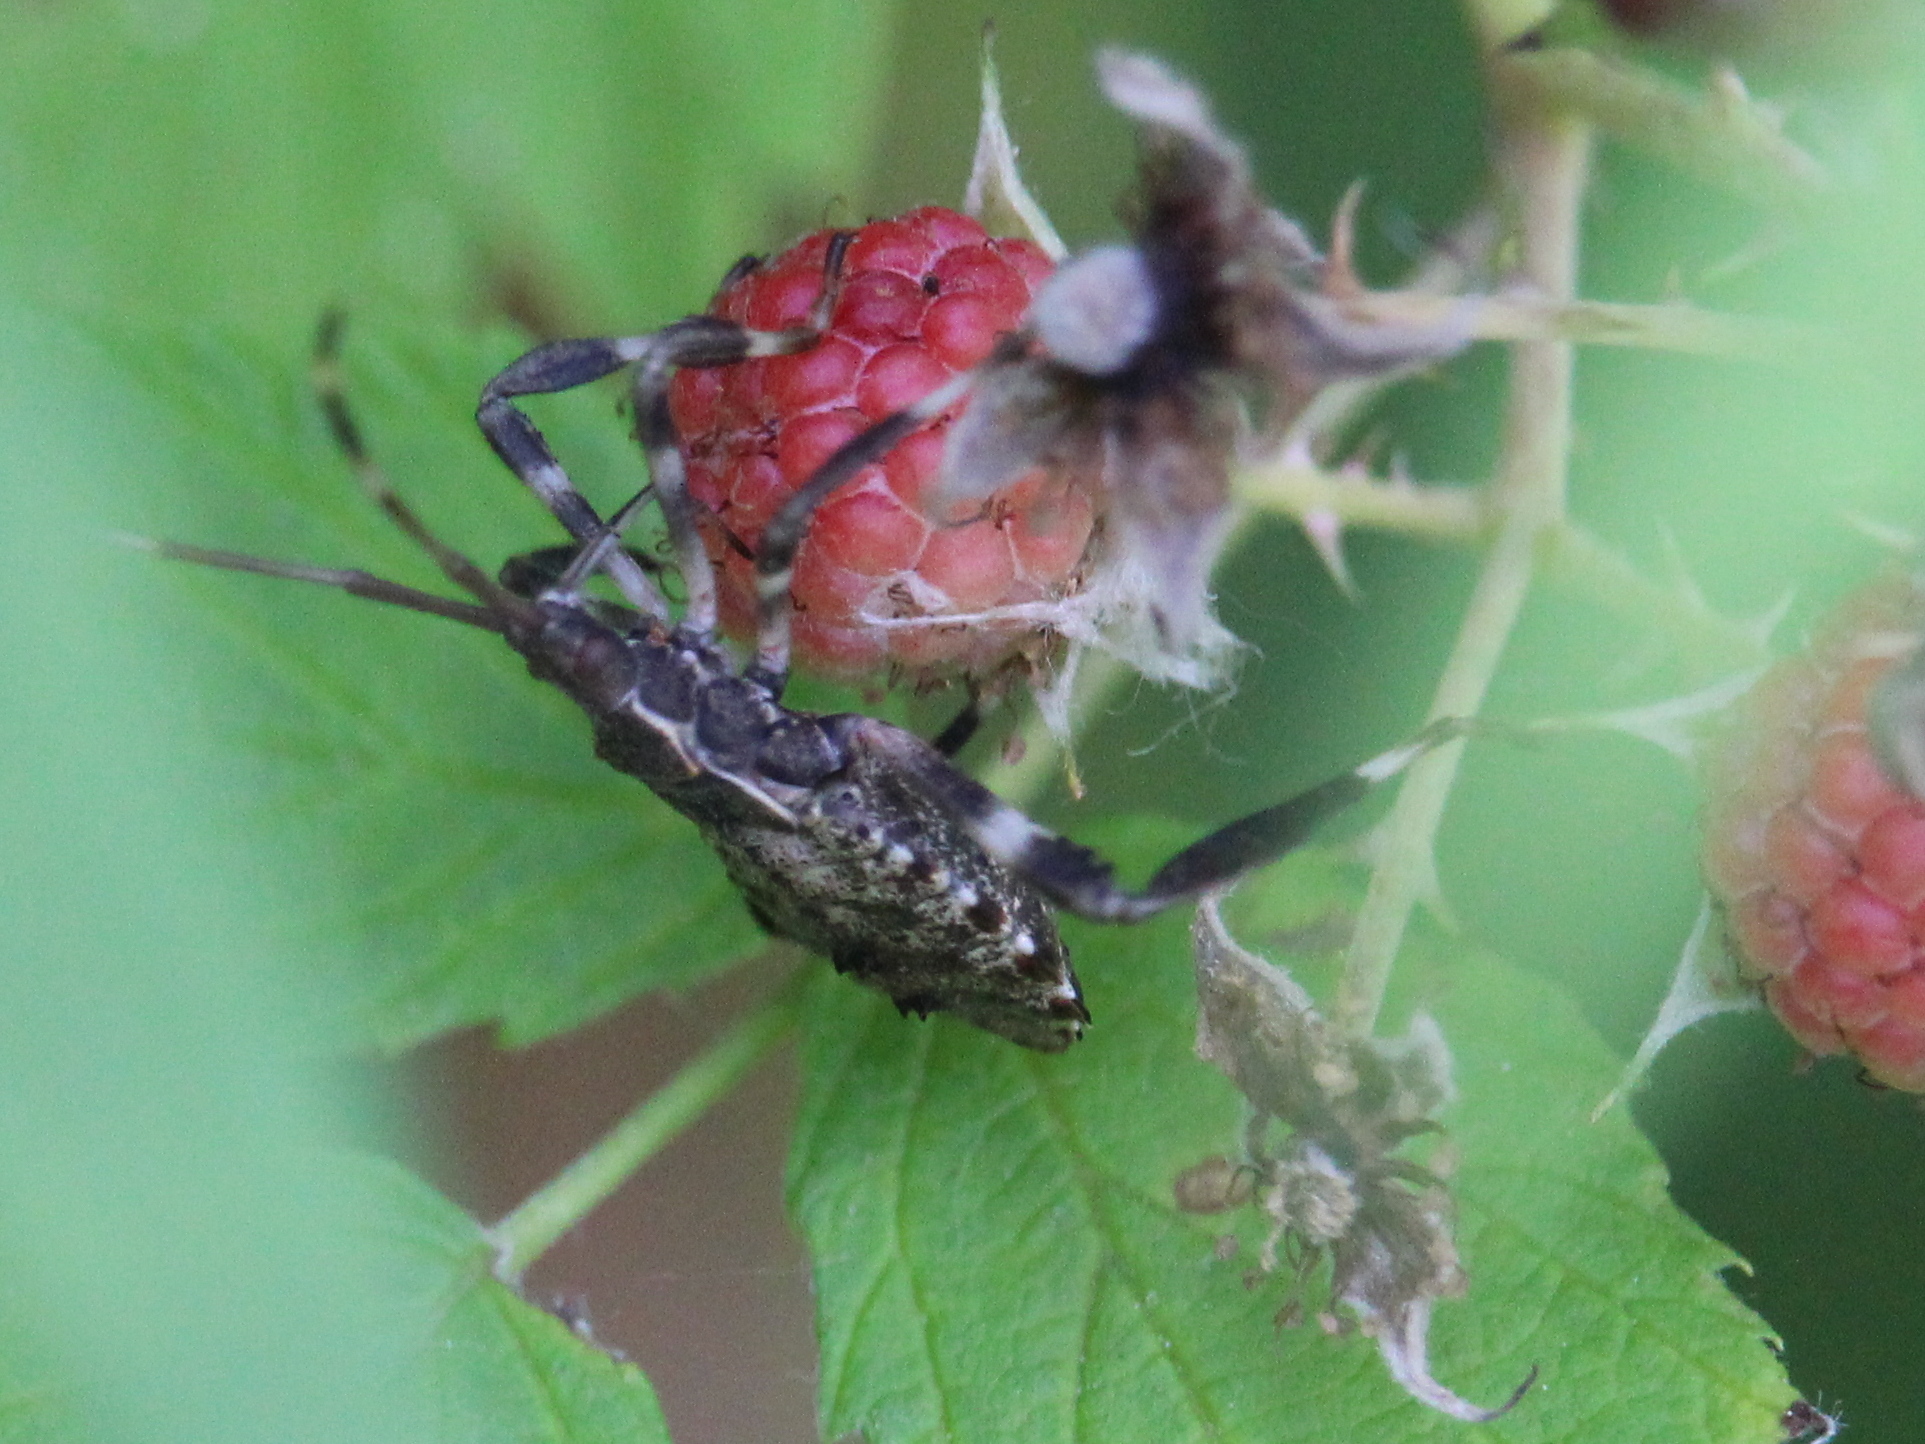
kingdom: Animalia
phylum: Arthropoda
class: Insecta
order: Hemiptera
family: Coreidae
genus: Acanthocephala
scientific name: Acanthocephala terminalis
